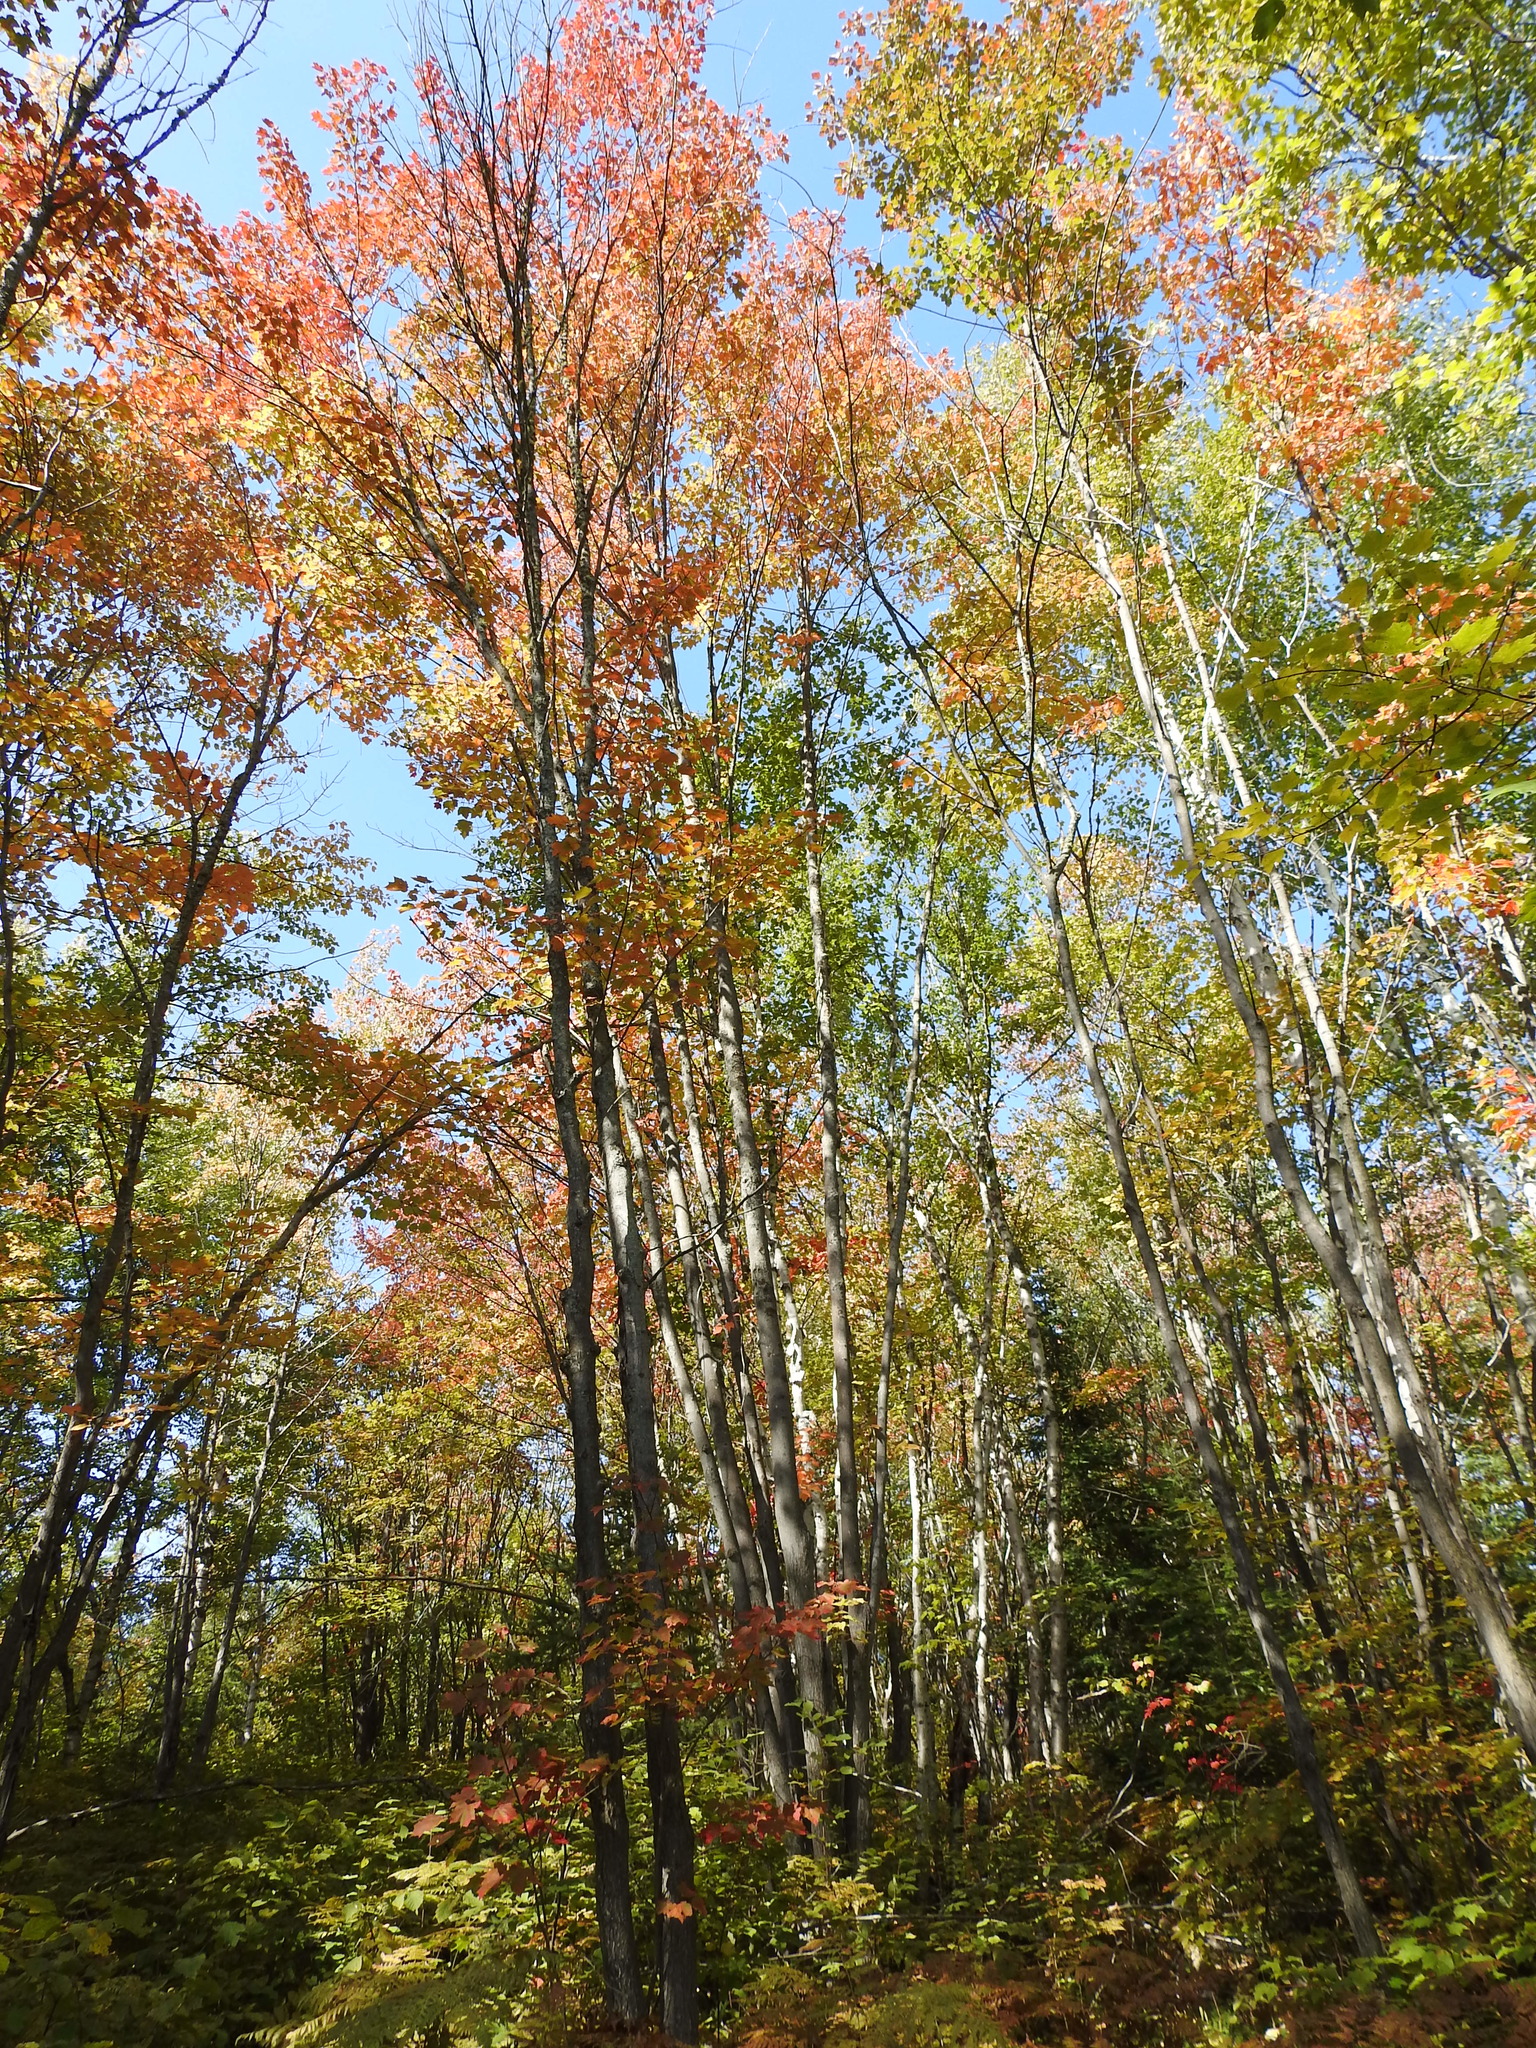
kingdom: Plantae
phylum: Tracheophyta
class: Magnoliopsida
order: Sapindales
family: Sapindaceae
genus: Acer
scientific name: Acer rubrum
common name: Red maple
